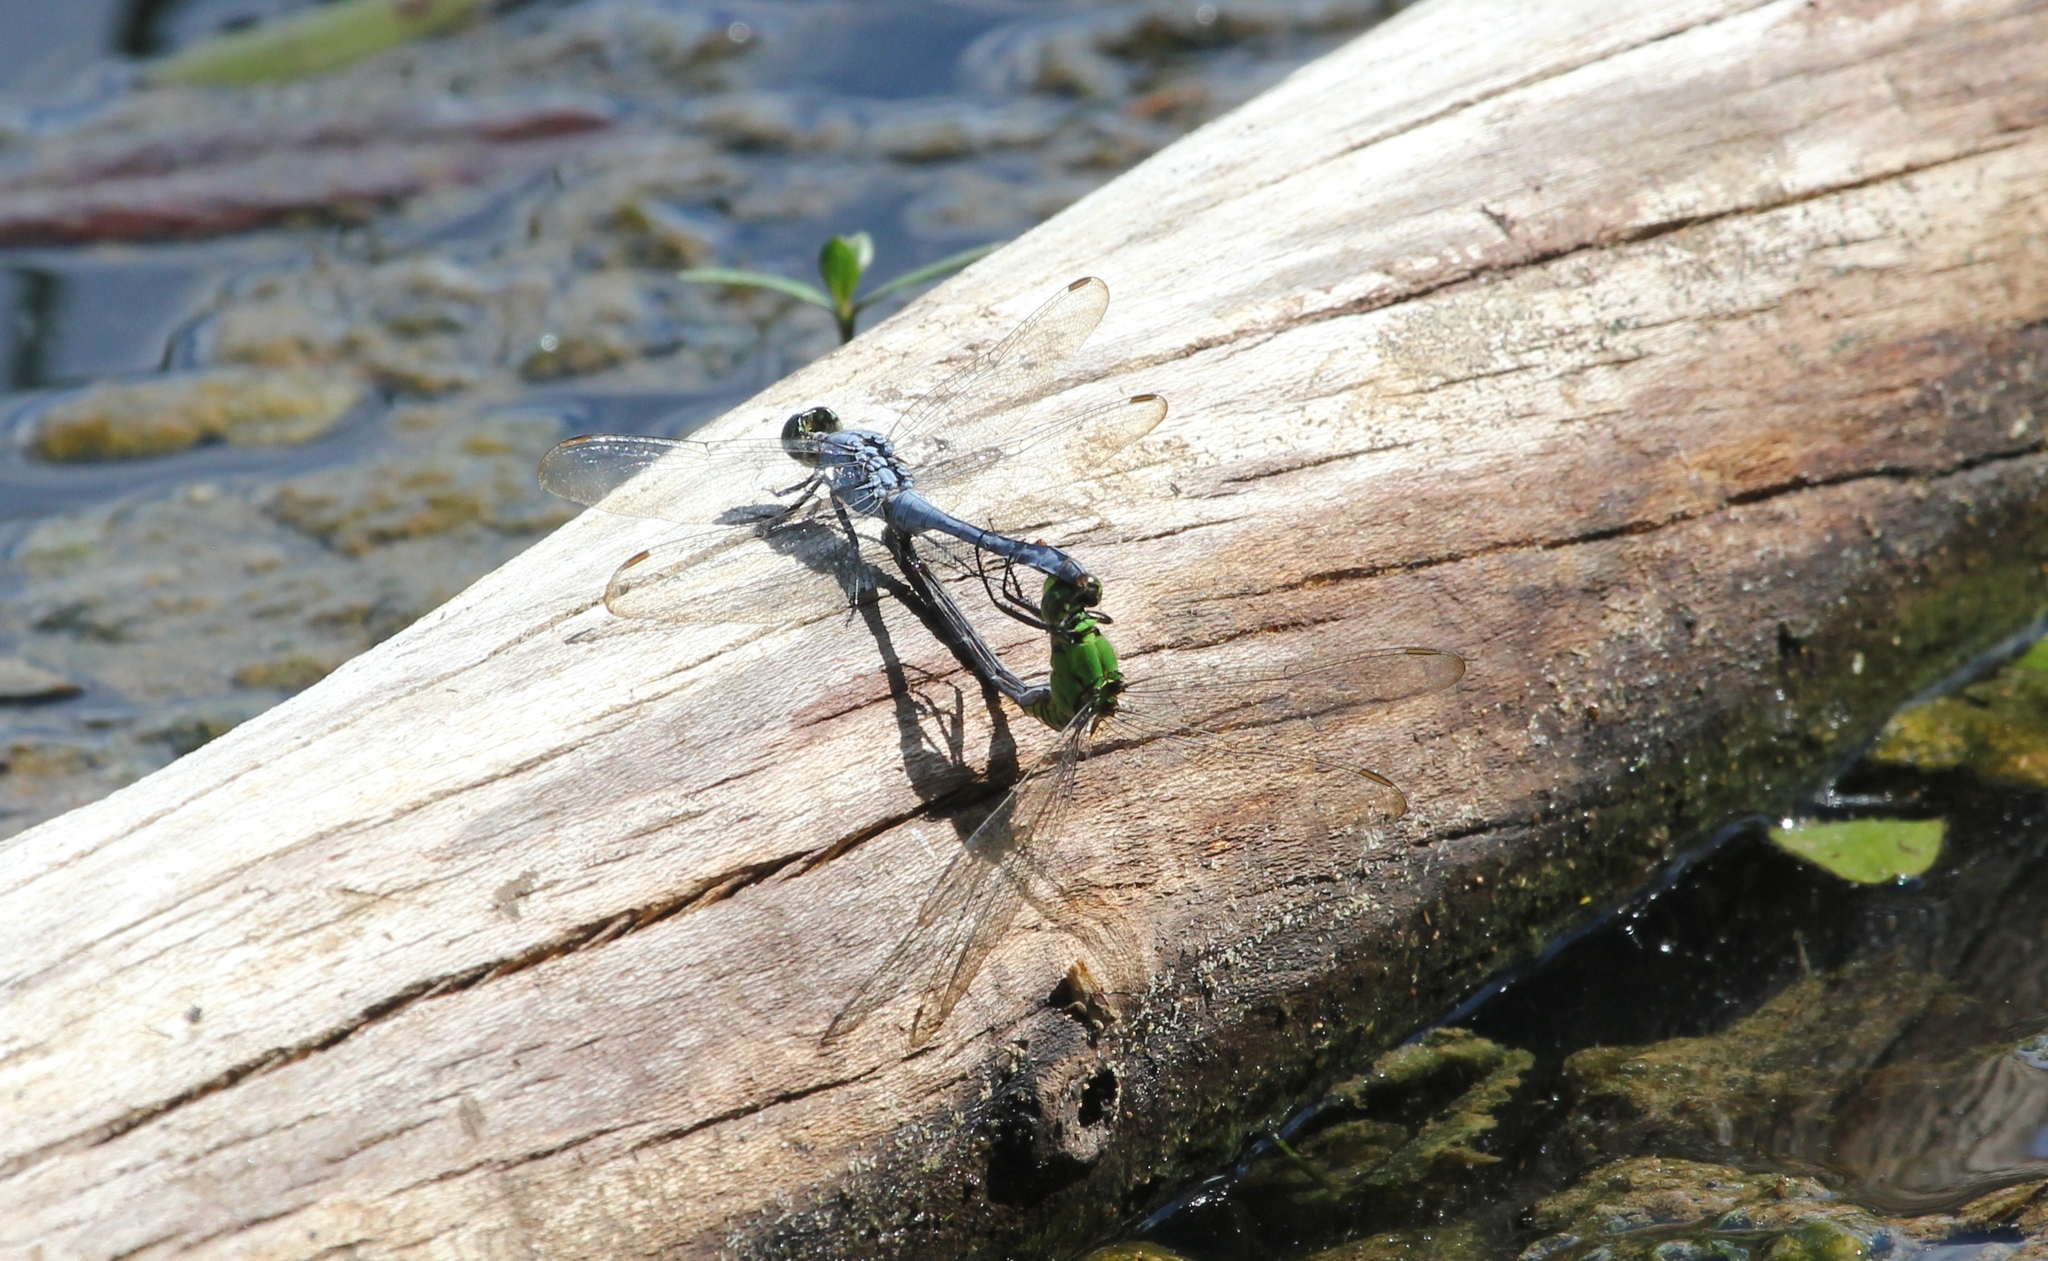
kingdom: Animalia
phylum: Arthropoda
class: Insecta
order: Odonata
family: Libellulidae
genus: Erythemis
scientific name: Erythemis simplicicollis
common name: Eastern pondhawk
